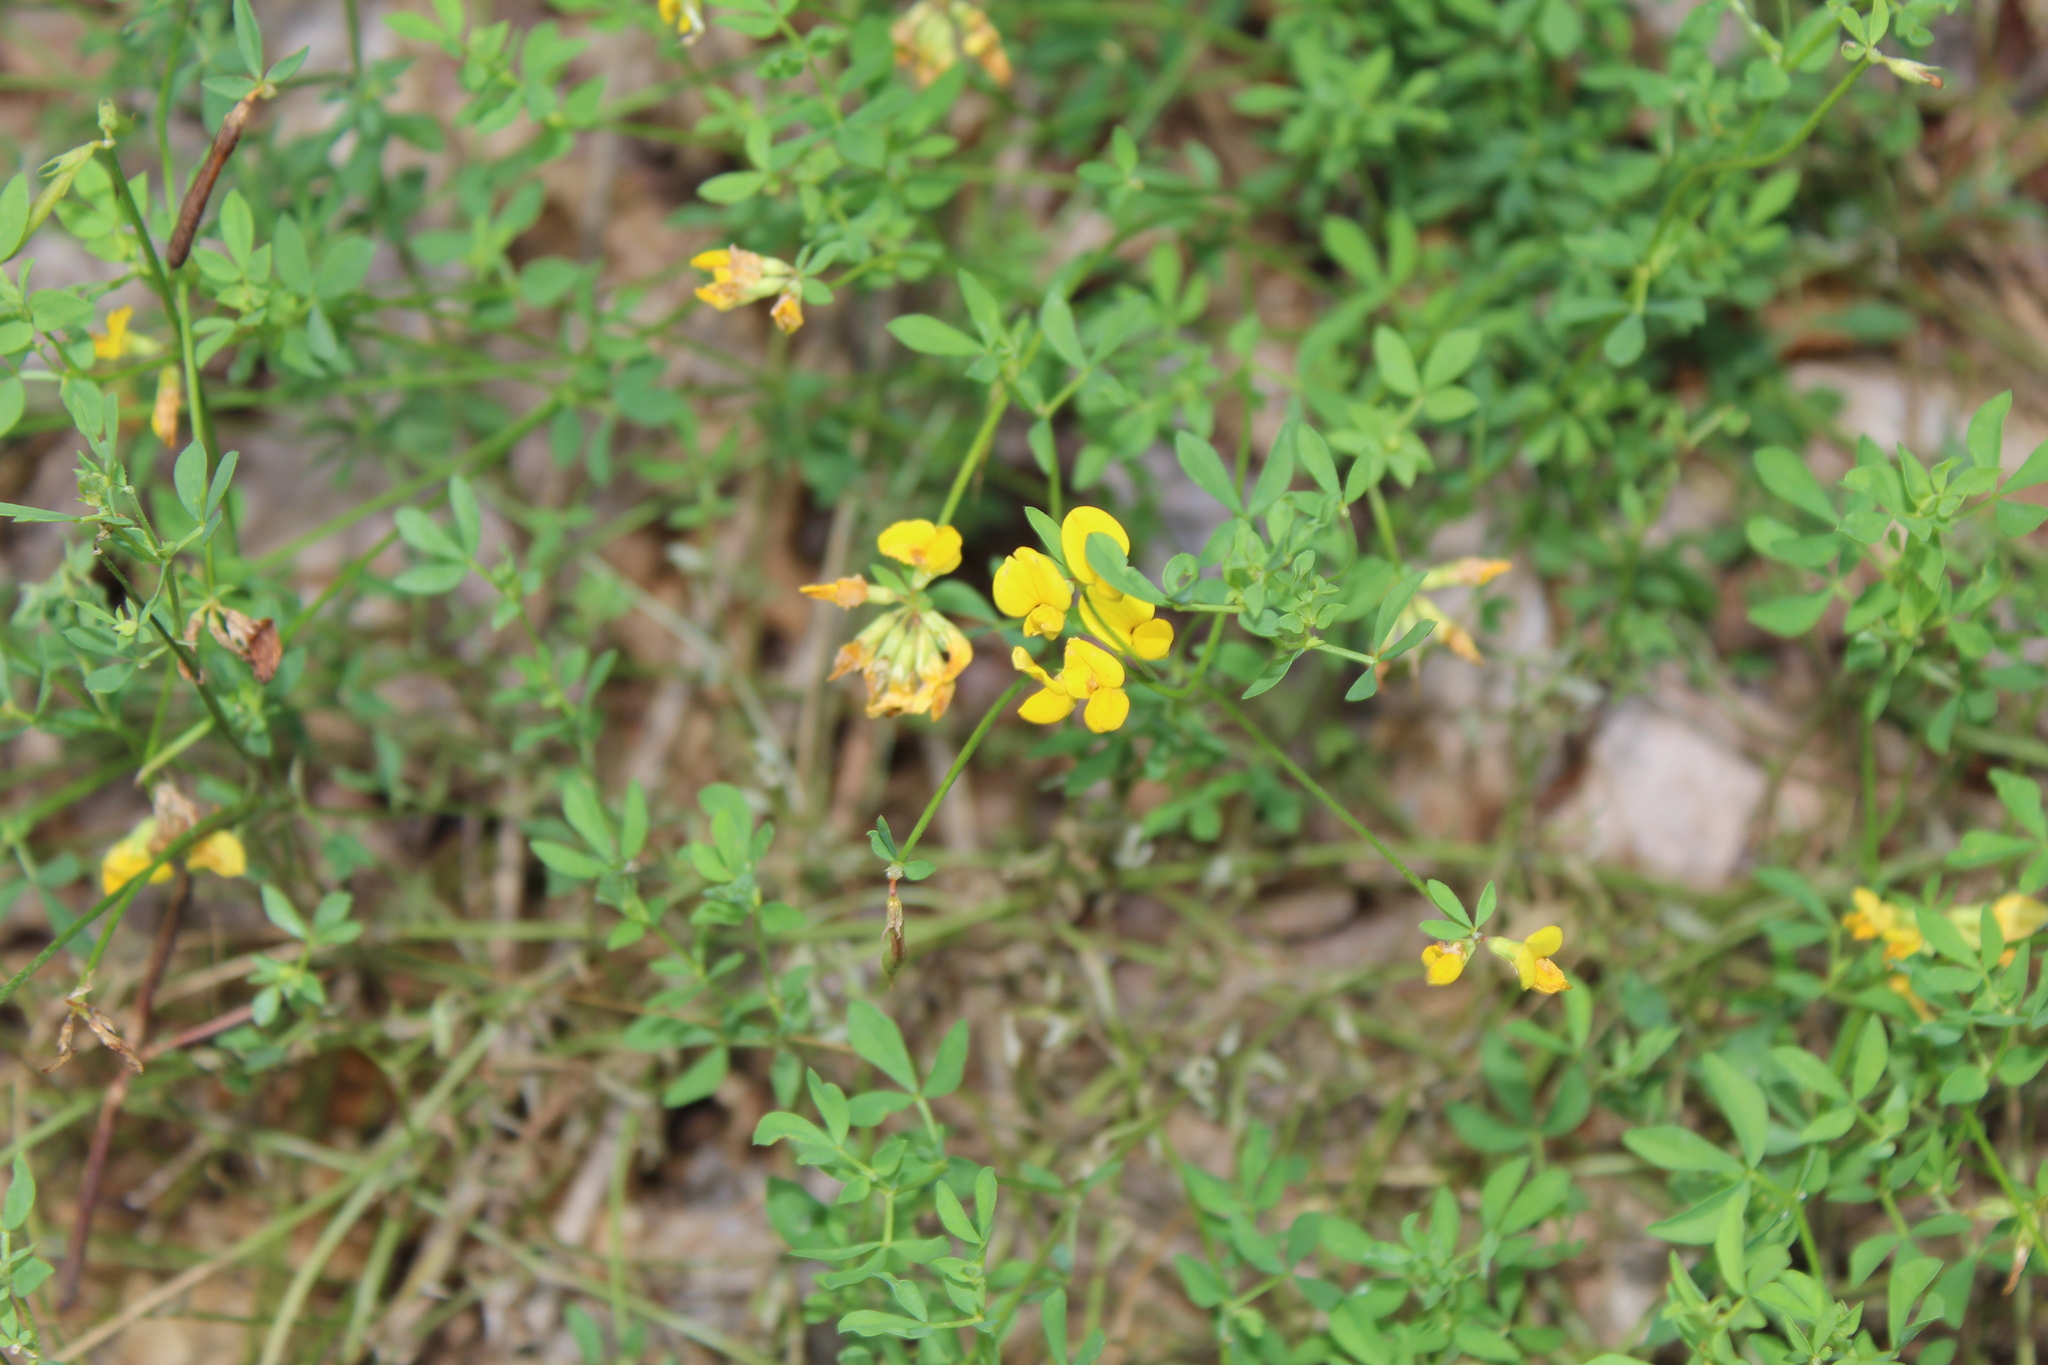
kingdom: Plantae
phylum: Tracheophyta
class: Magnoliopsida
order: Fabales
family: Fabaceae
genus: Lotus
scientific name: Lotus corniculatus
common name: Common bird's-foot-trefoil
